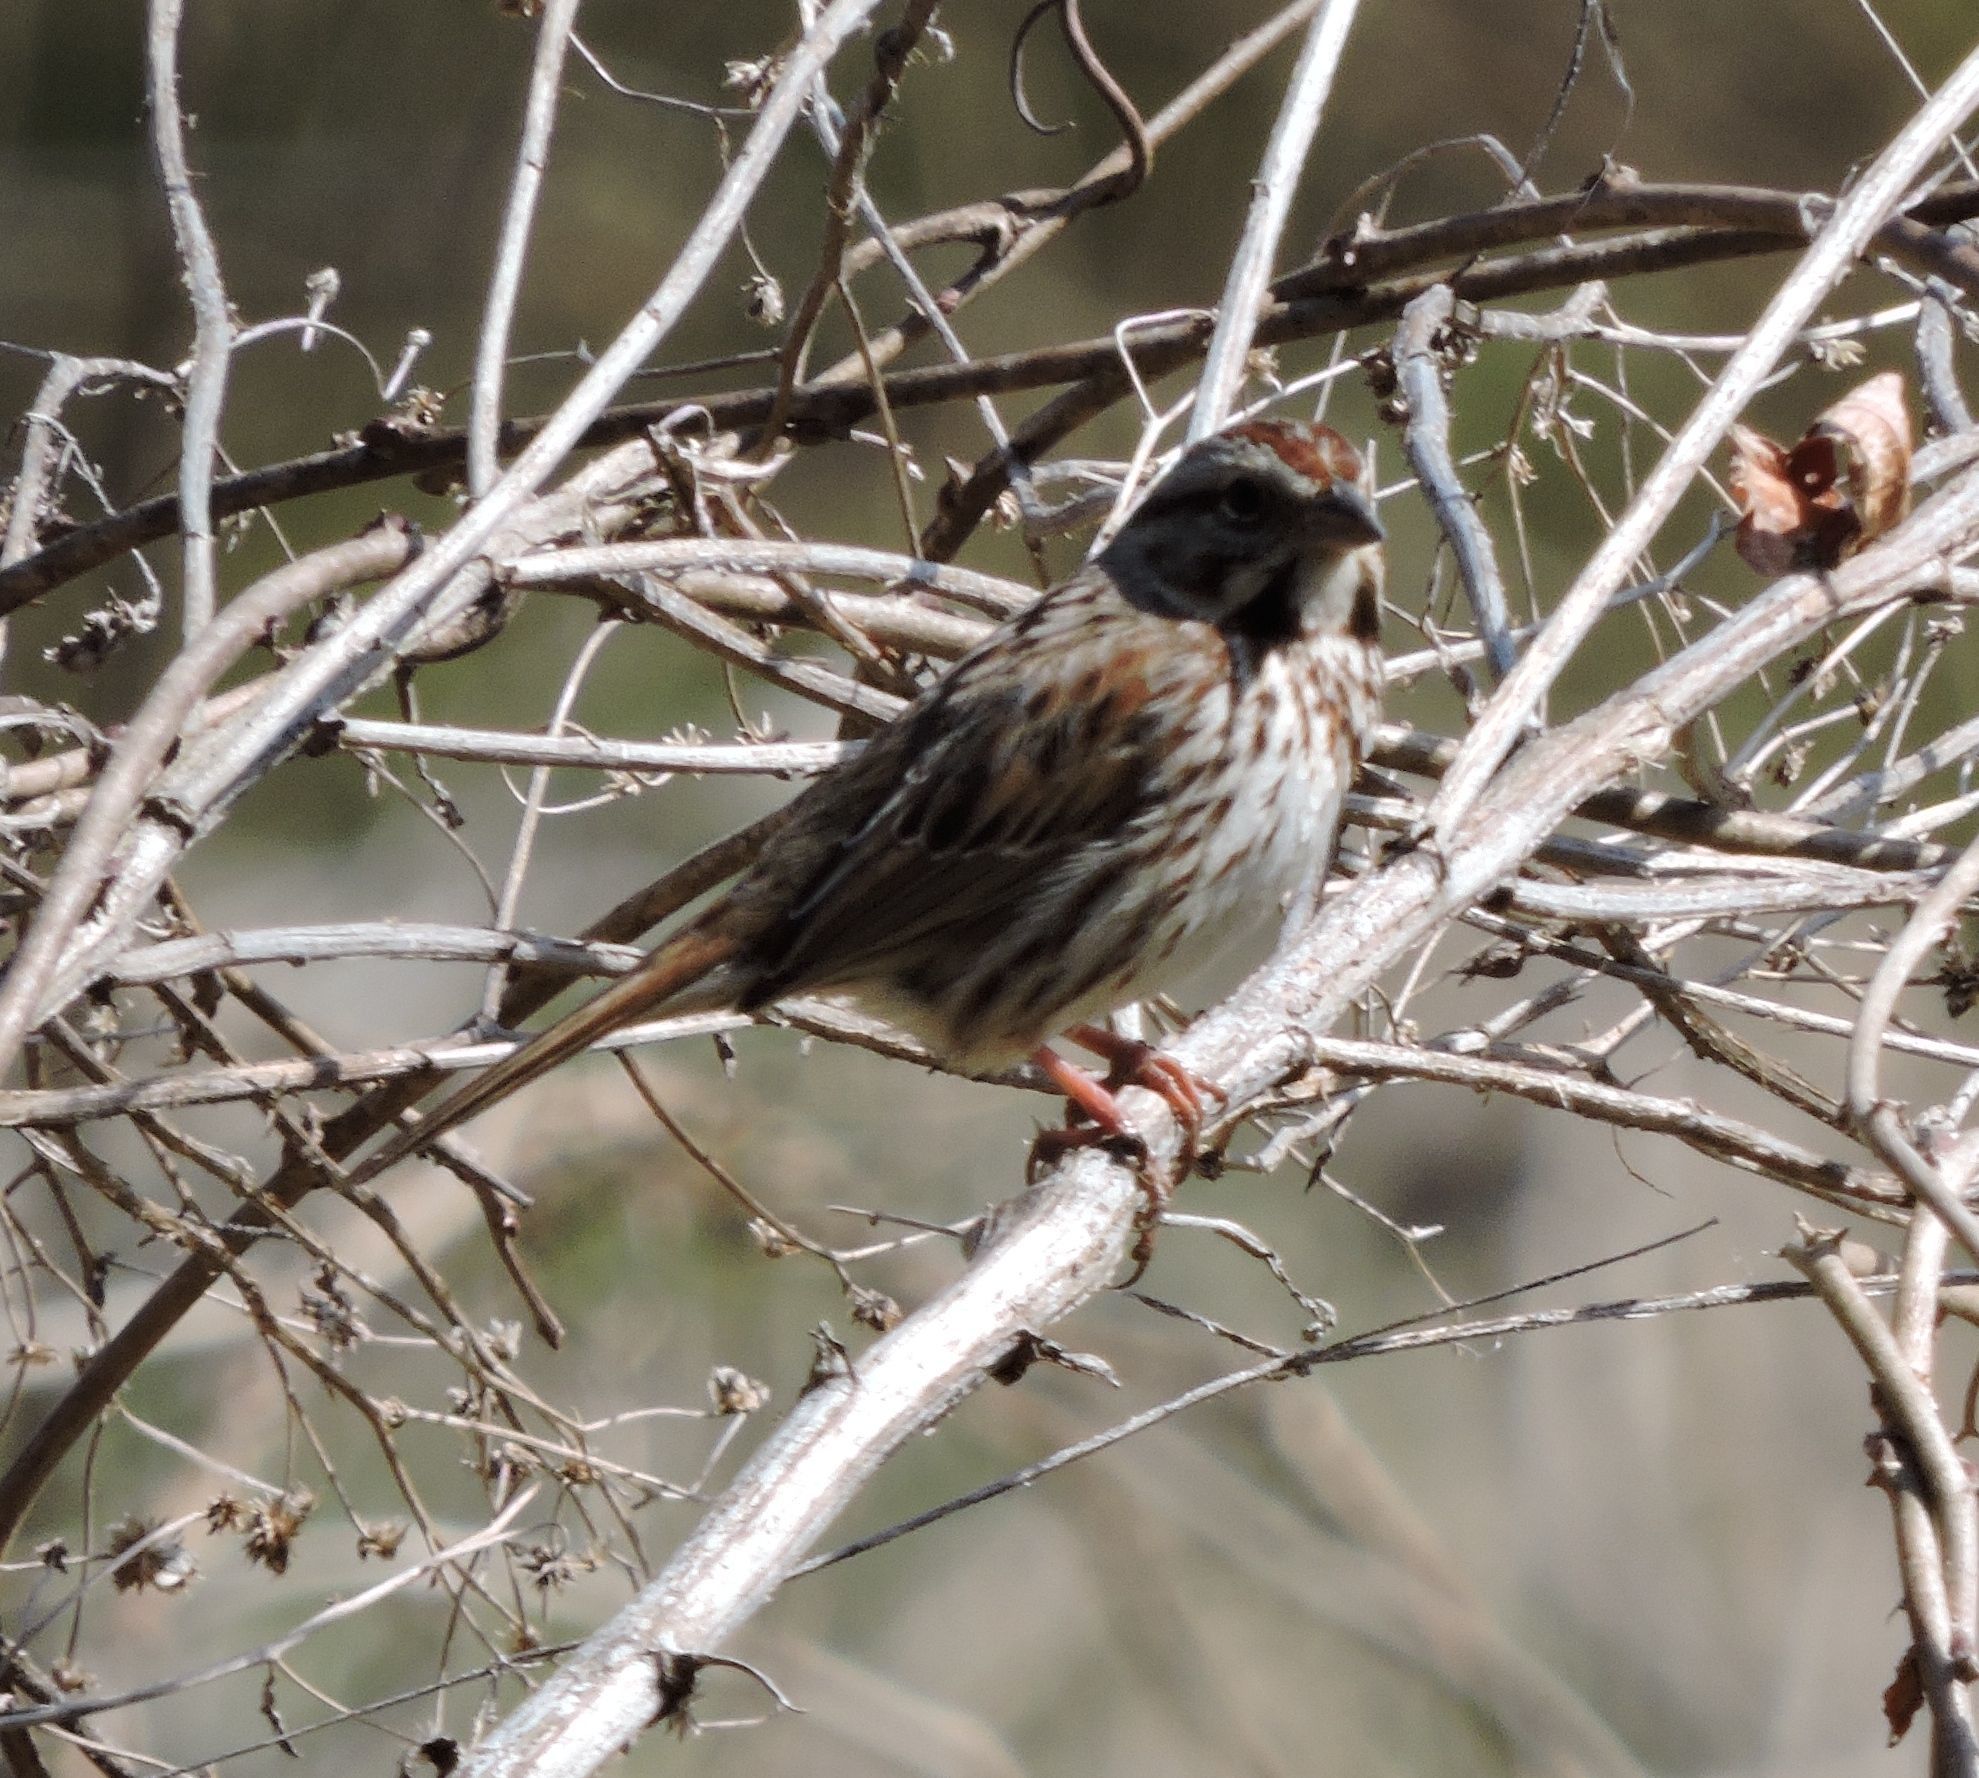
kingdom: Animalia
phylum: Chordata
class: Aves
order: Passeriformes
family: Passerellidae
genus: Melospiza
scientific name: Melospiza melodia
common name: Song sparrow
